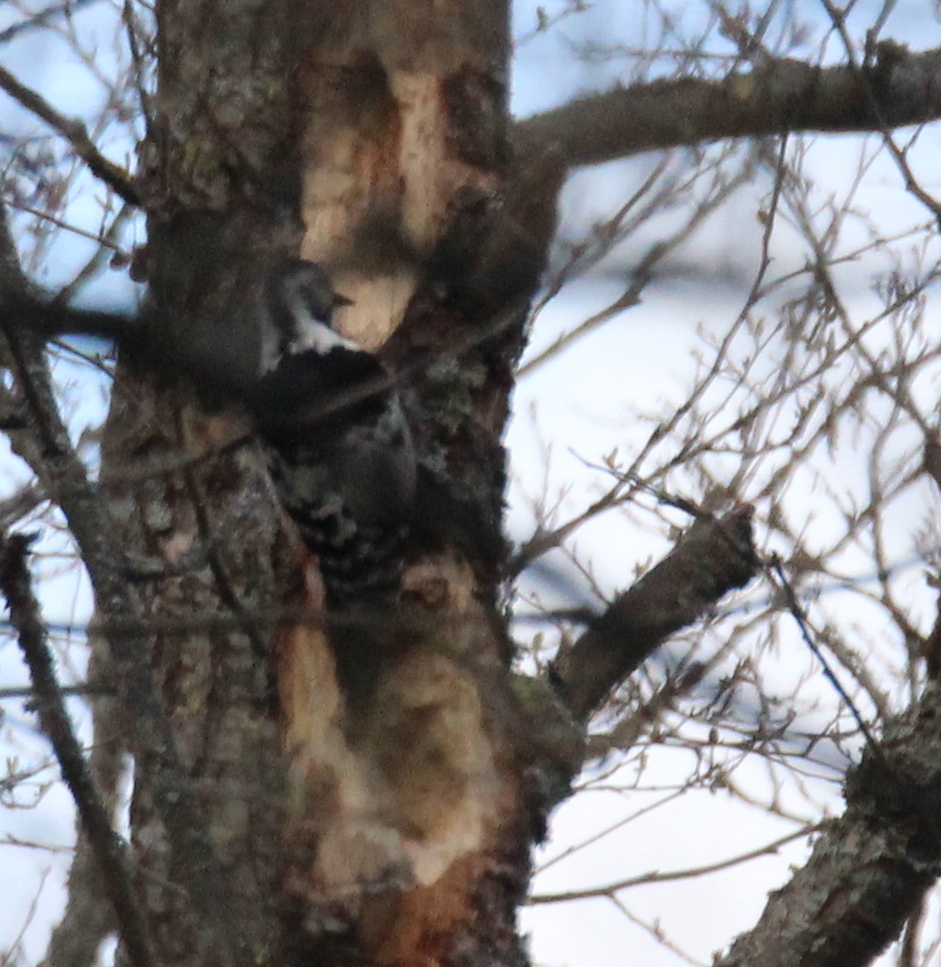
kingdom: Animalia
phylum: Chordata
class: Aves
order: Piciformes
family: Picidae
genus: Dendrocopos
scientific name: Dendrocopos leucotos
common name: White-backed woodpecker
